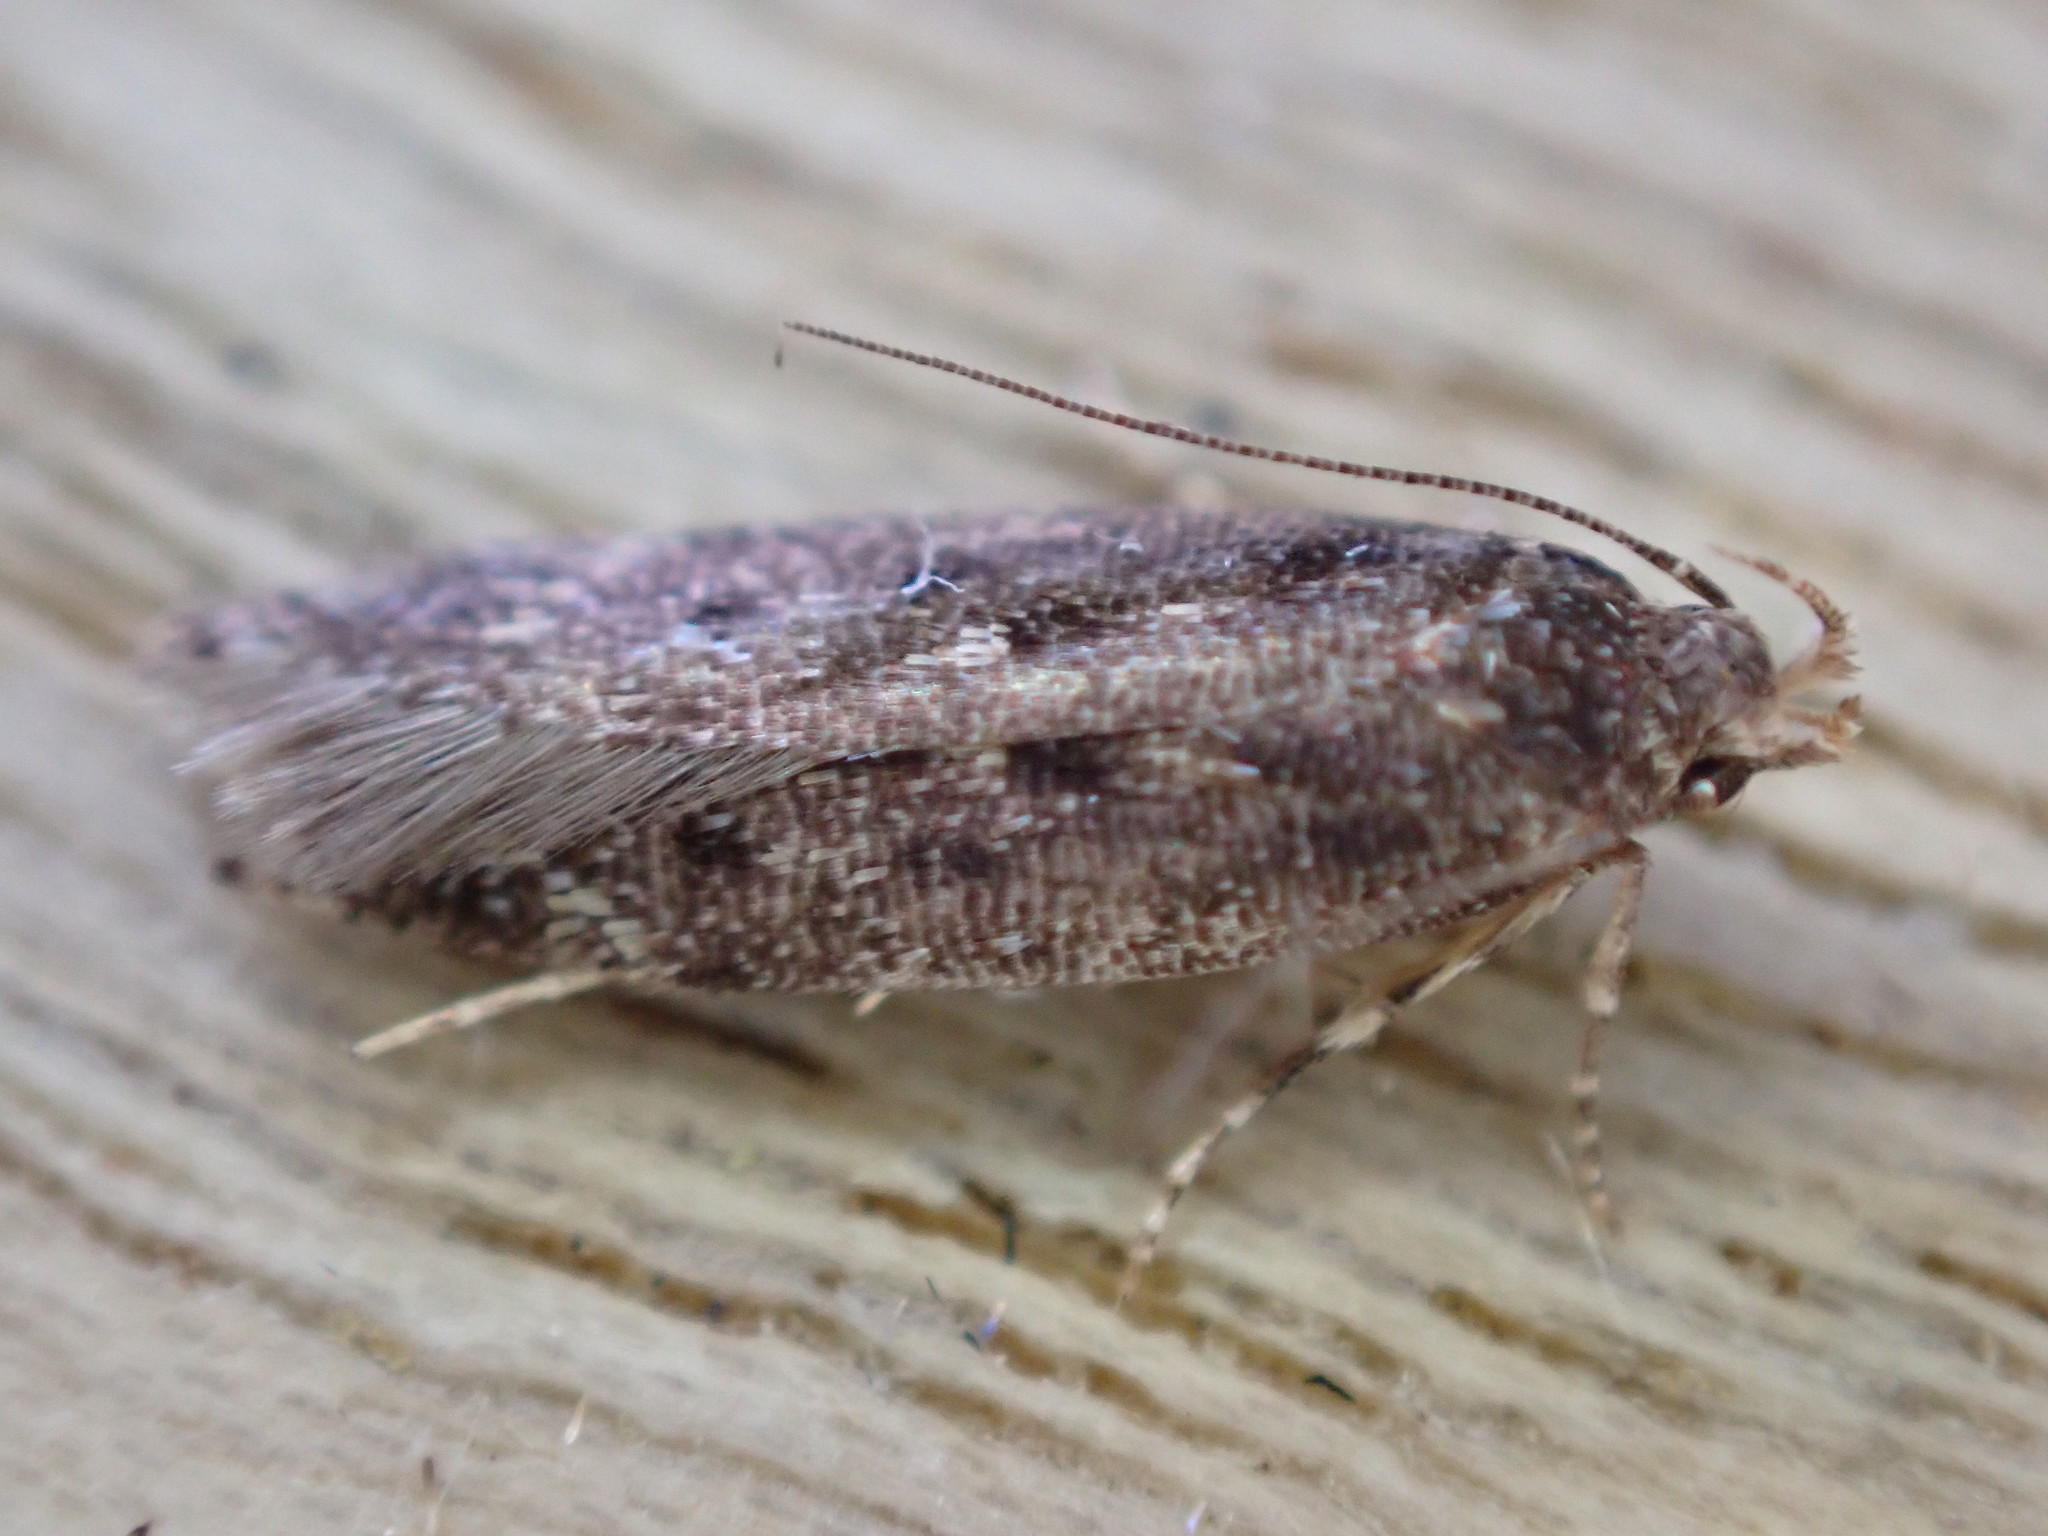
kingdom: Animalia
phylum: Arthropoda
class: Insecta
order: Lepidoptera
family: Oecophoridae
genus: Hofmannophila
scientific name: Hofmannophila pseudospretella
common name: Brown house moth
